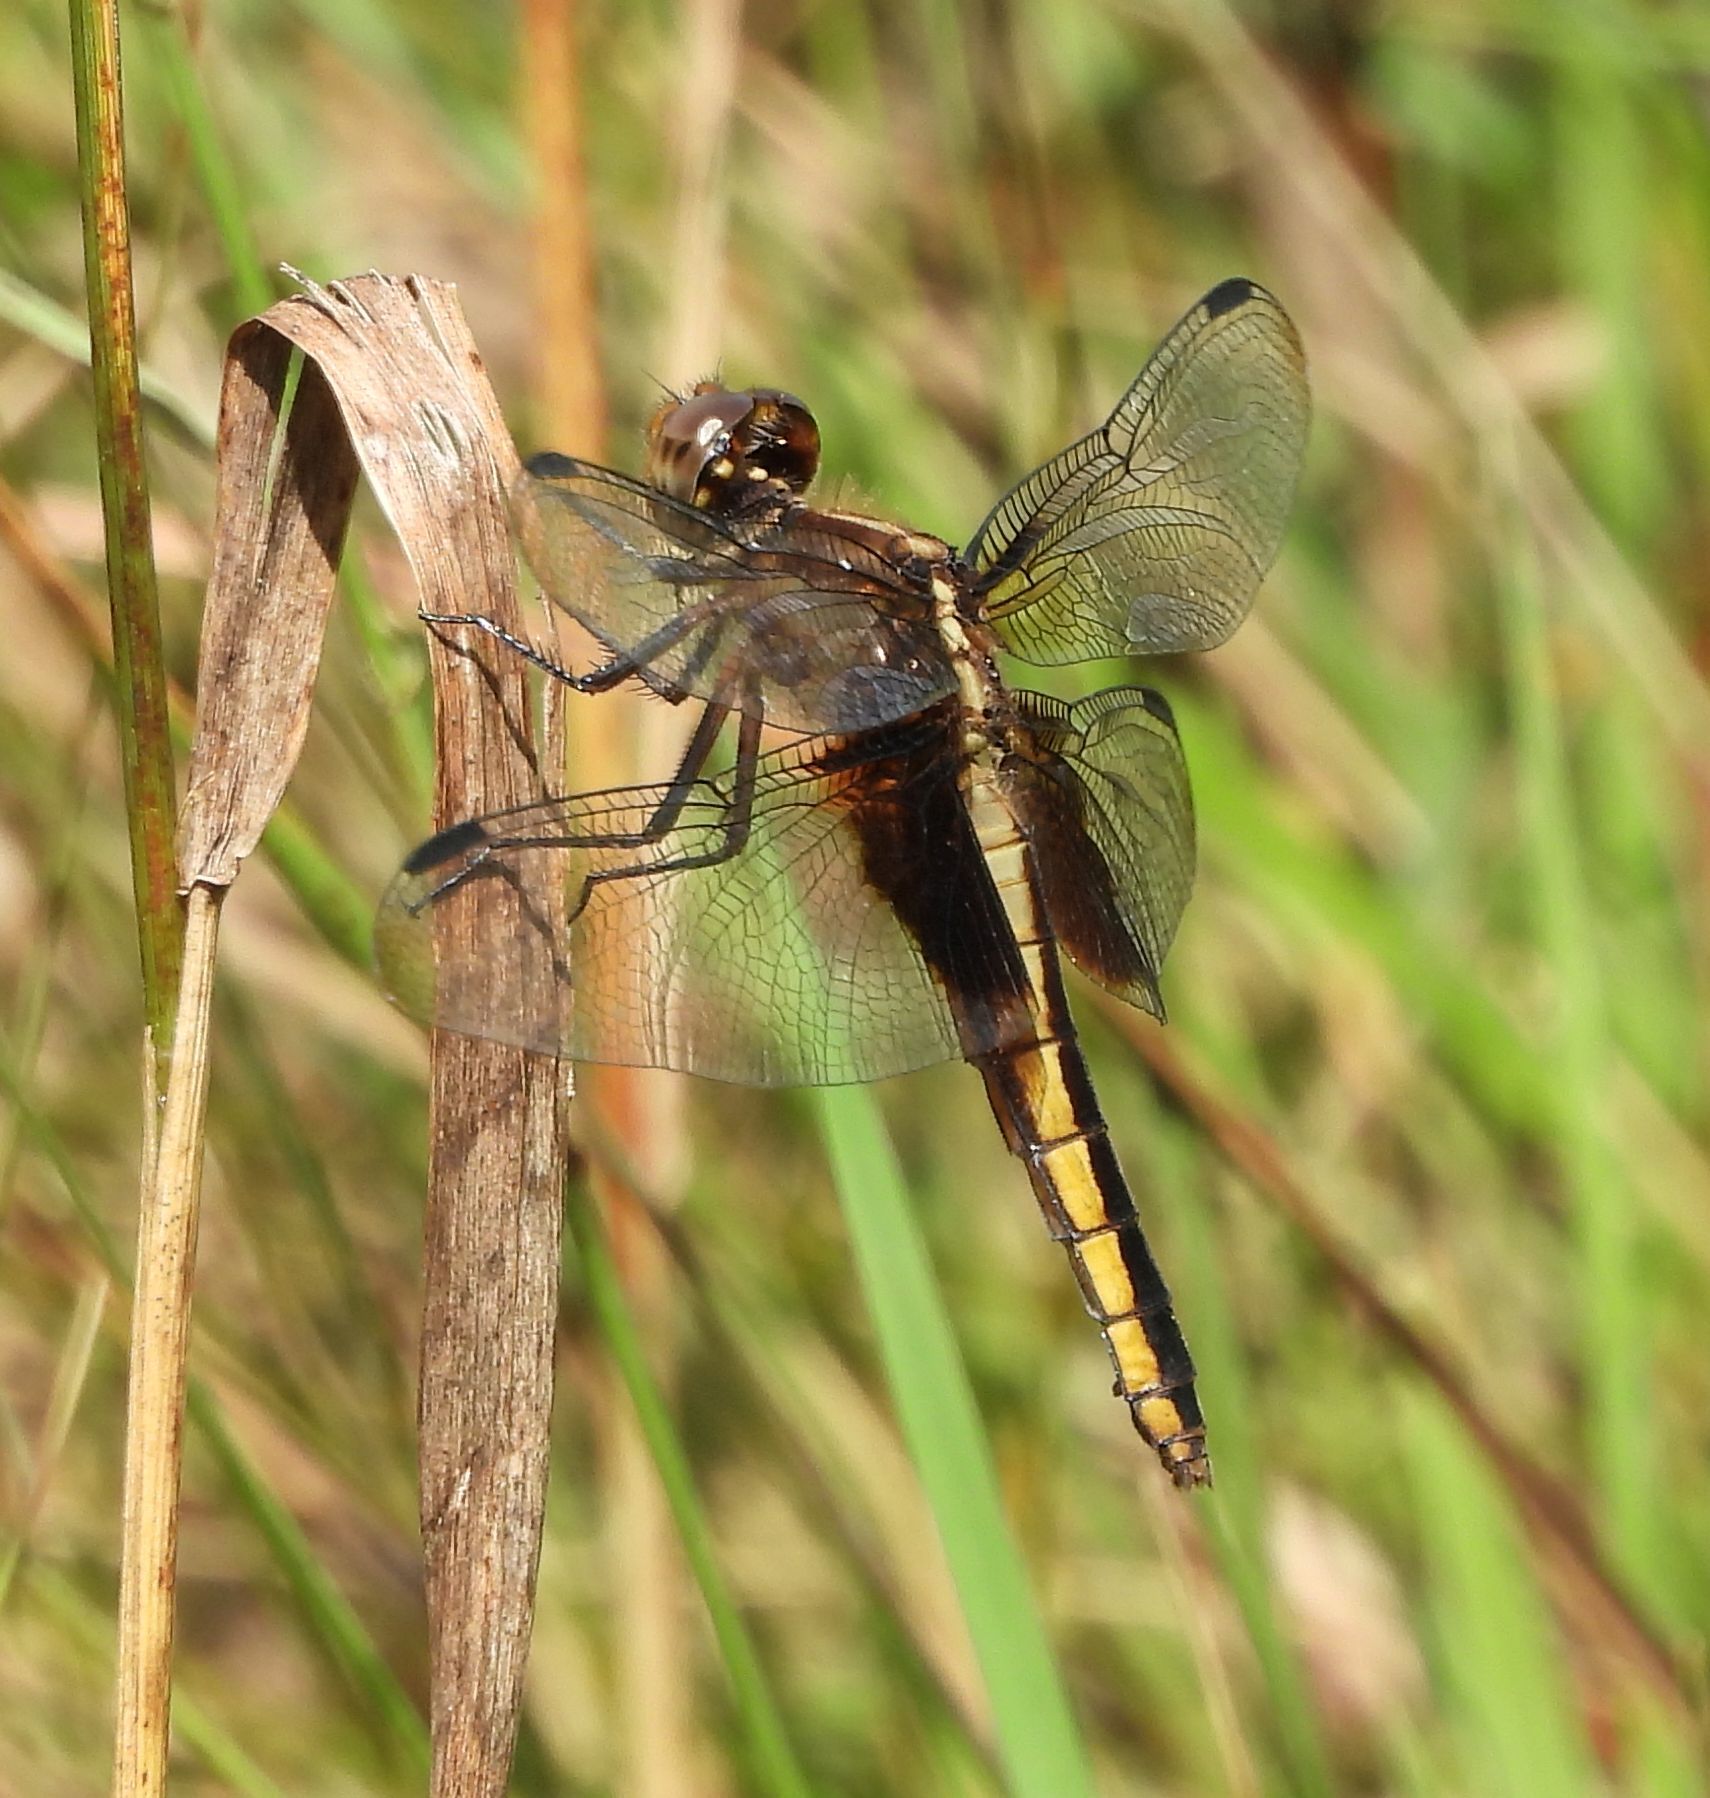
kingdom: Animalia
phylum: Arthropoda
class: Insecta
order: Odonata
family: Libellulidae
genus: Libellula
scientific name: Libellula luctuosa
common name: Widow skimmer
